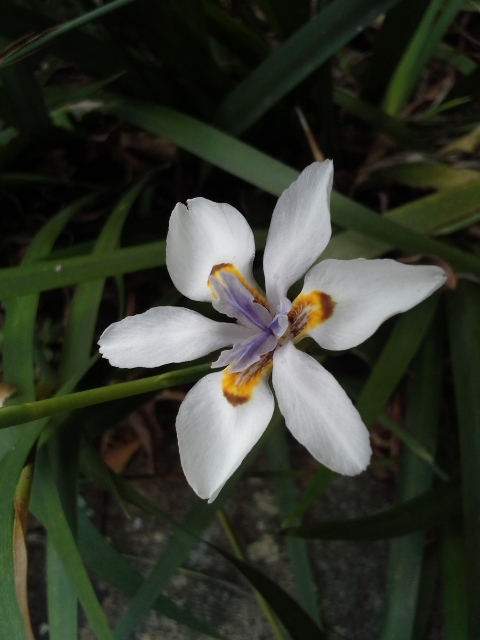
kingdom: Plantae
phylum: Tracheophyta
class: Liliopsida
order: Asparagales
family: Iridaceae
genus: Dietes
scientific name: Dietes iridioides
